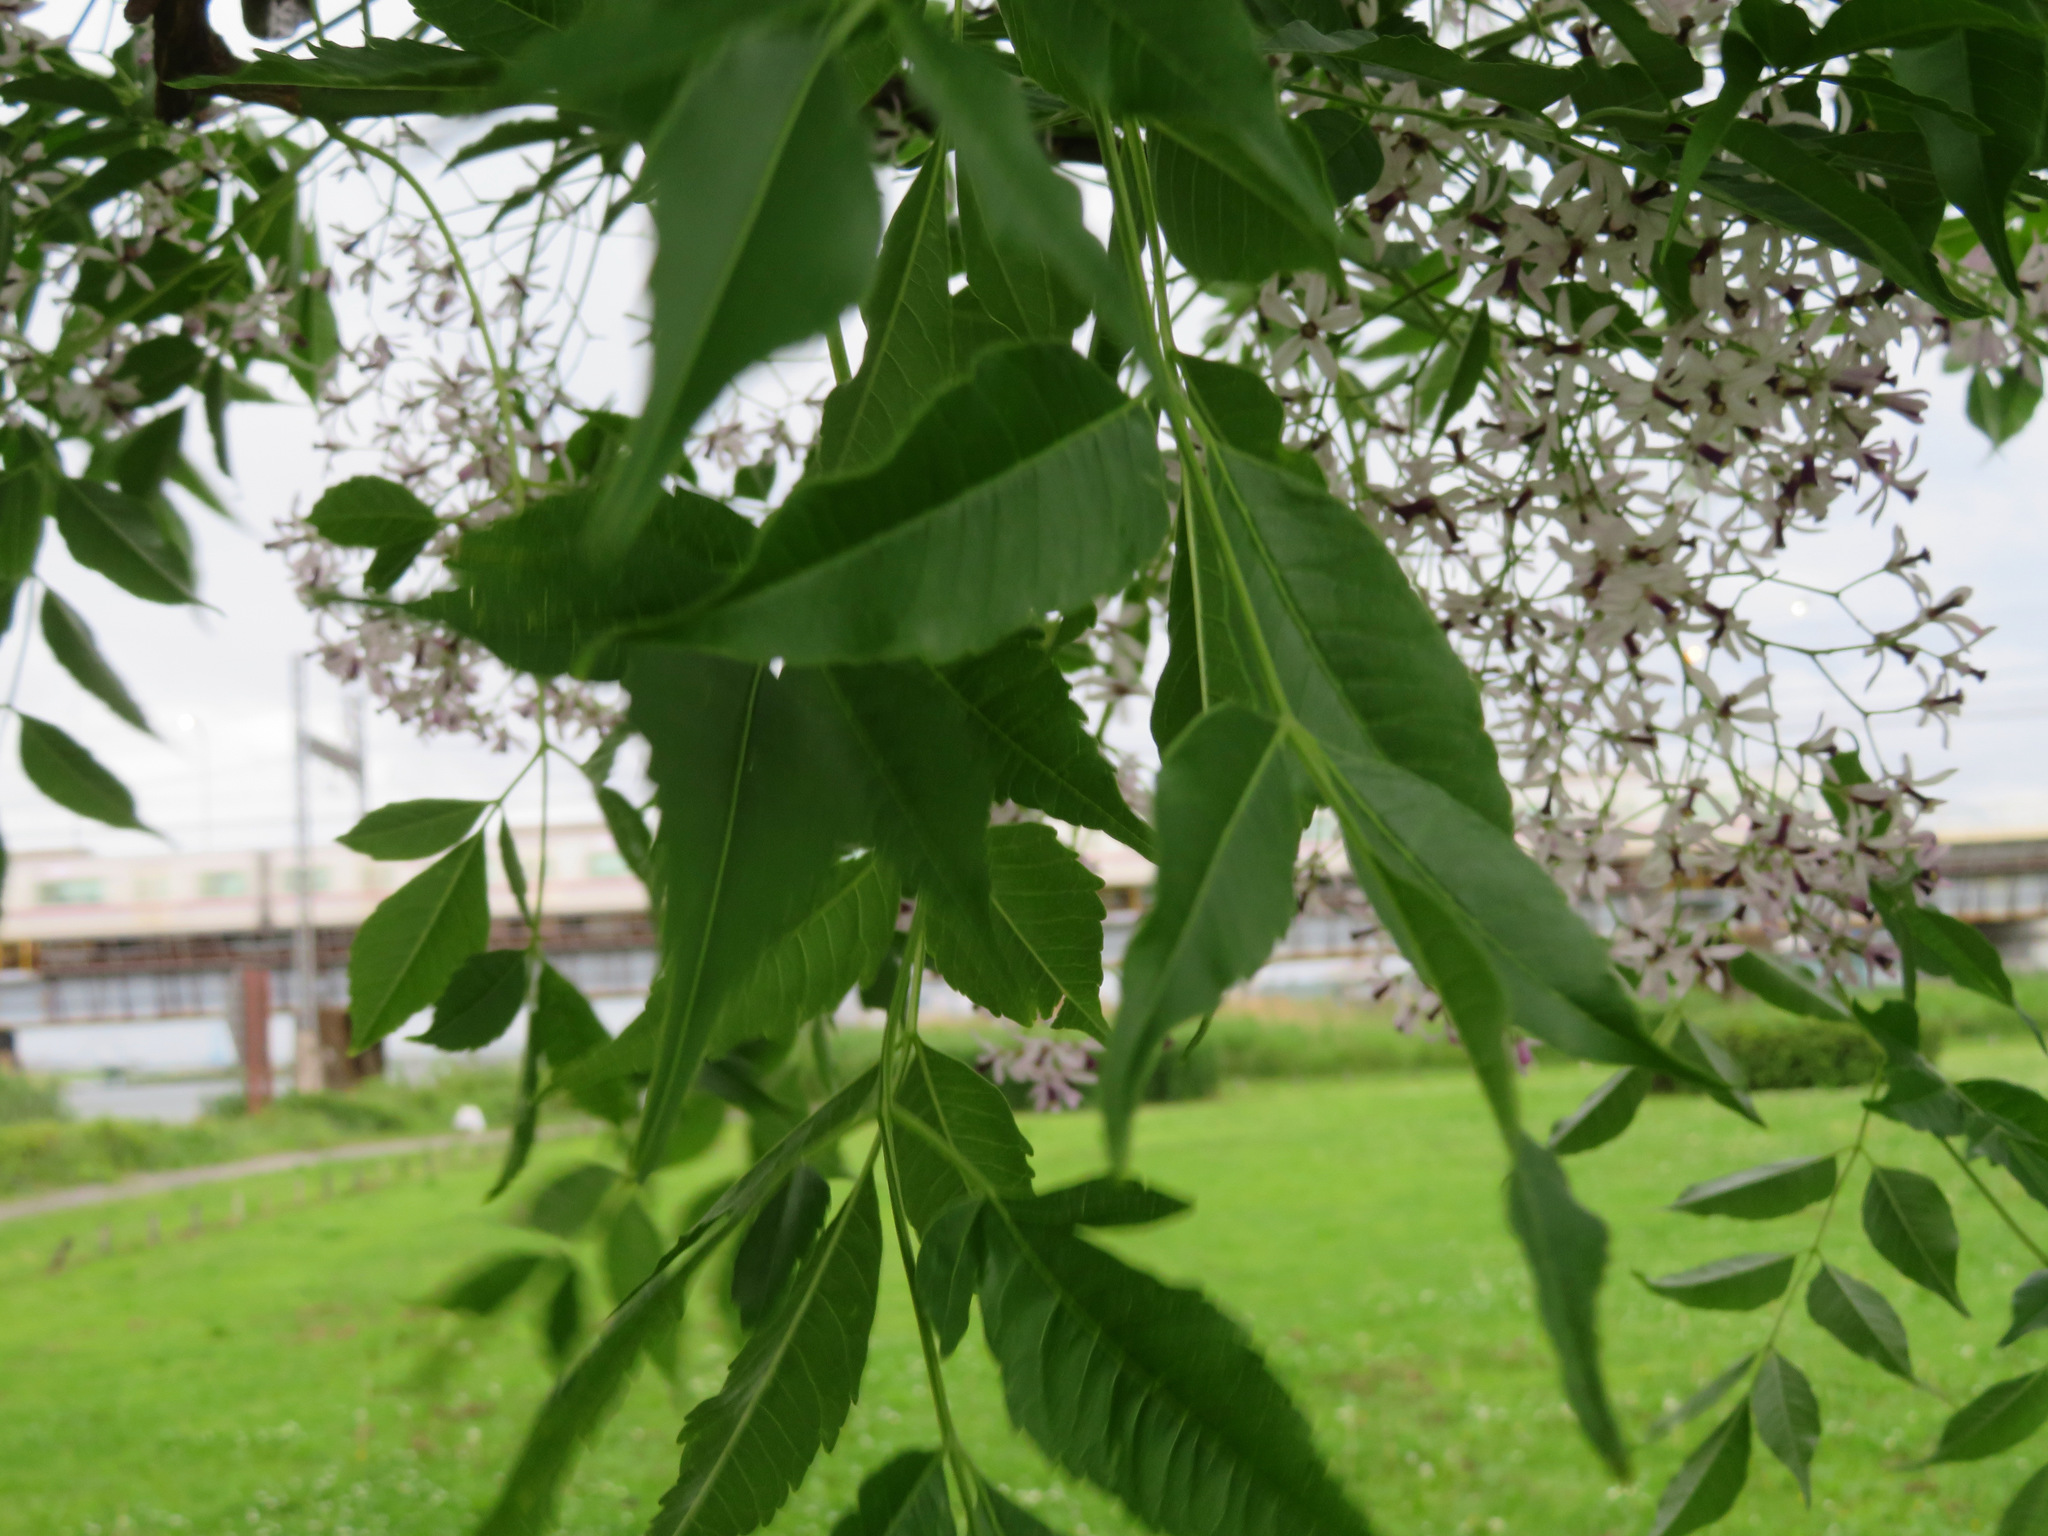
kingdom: Plantae
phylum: Tracheophyta
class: Magnoliopsida
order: Sapindales
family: Meliaceae
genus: Melia
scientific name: Melia azedarach
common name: Chinaberrytree
